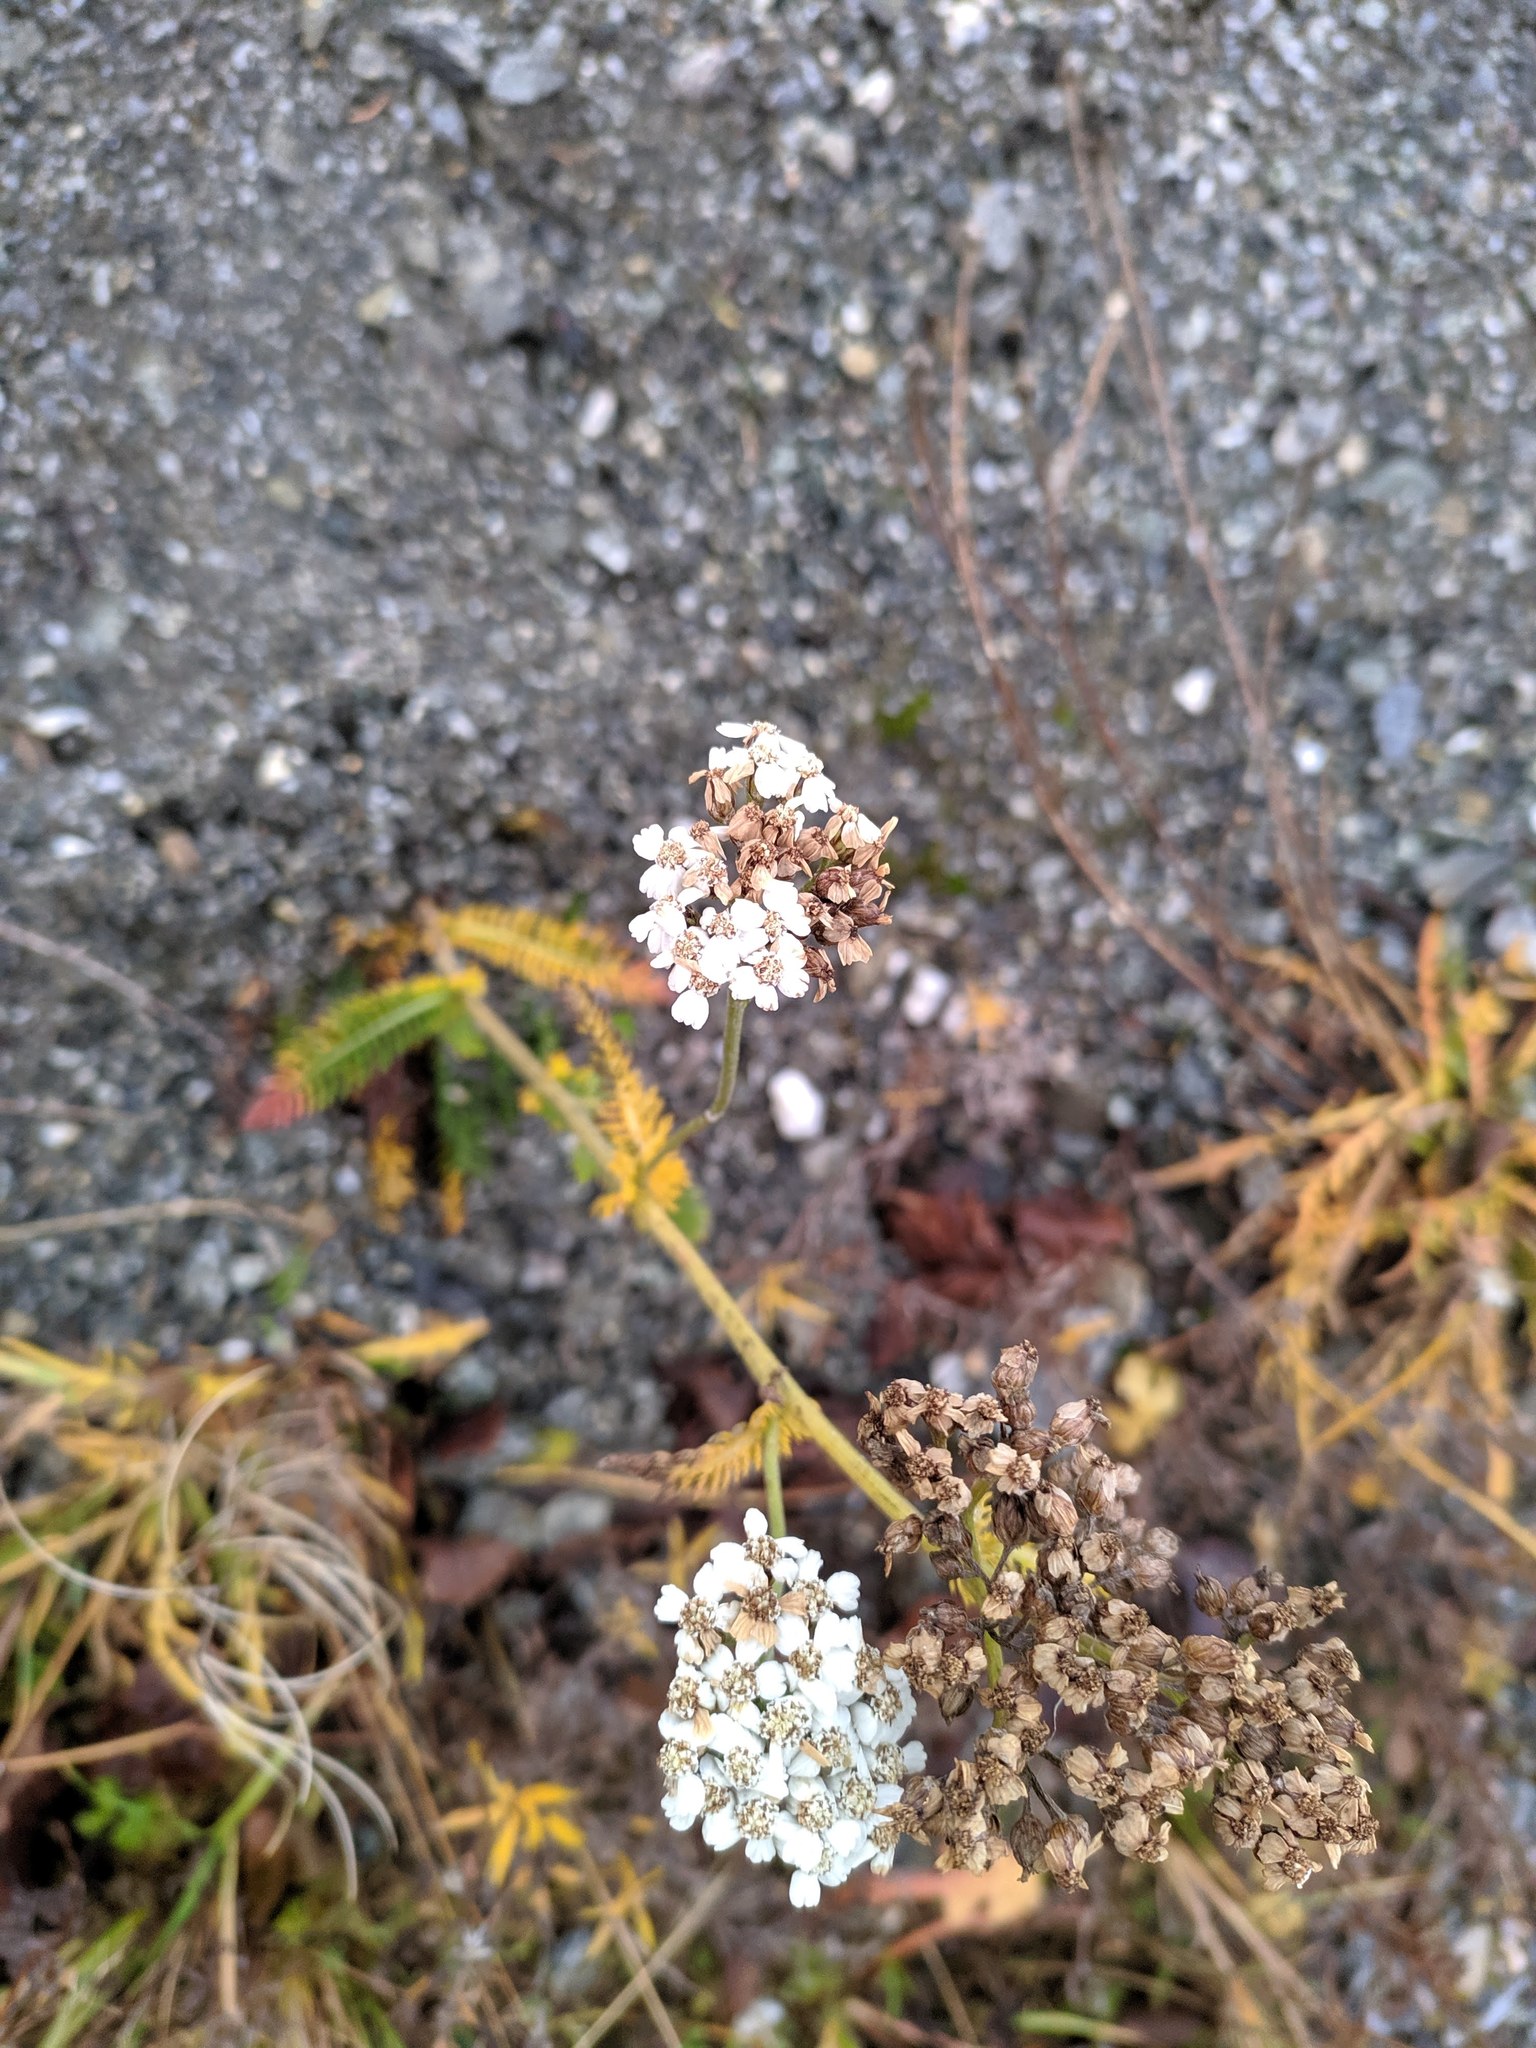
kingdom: Plantae
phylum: Tracheophyta
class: Magnoliopsida
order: Asterales
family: Asteraceae
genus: Achillea
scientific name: Achillea millefolium
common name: Yarrow
